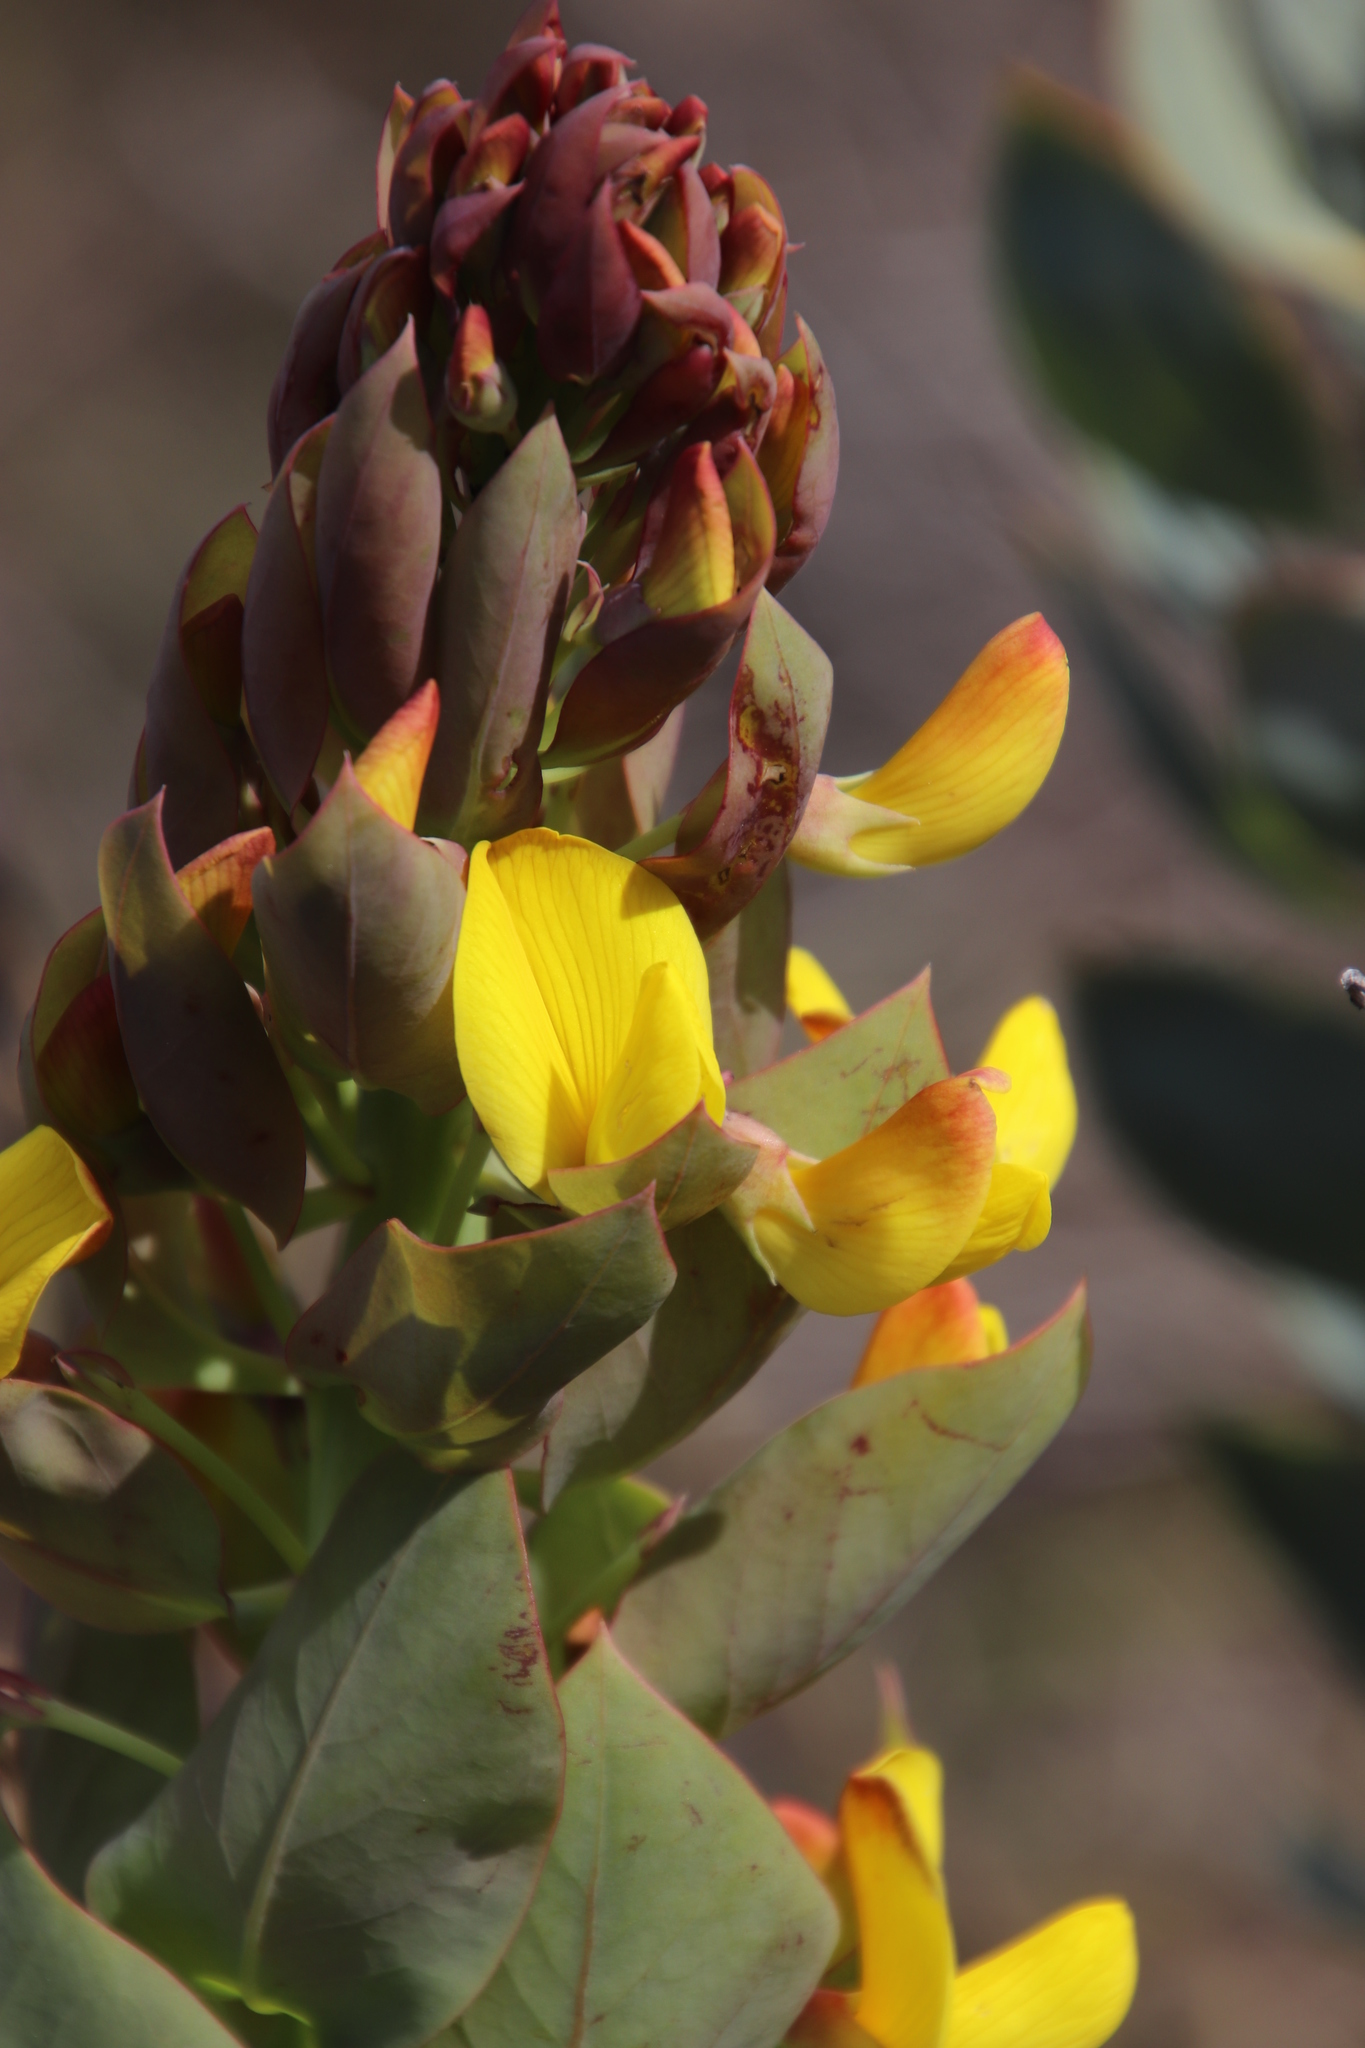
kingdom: Plantae
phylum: Tracheophyta
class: Magnoliopsida
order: Fabales
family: Fabaceae
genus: Rafnia
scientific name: Rafnia triflora
